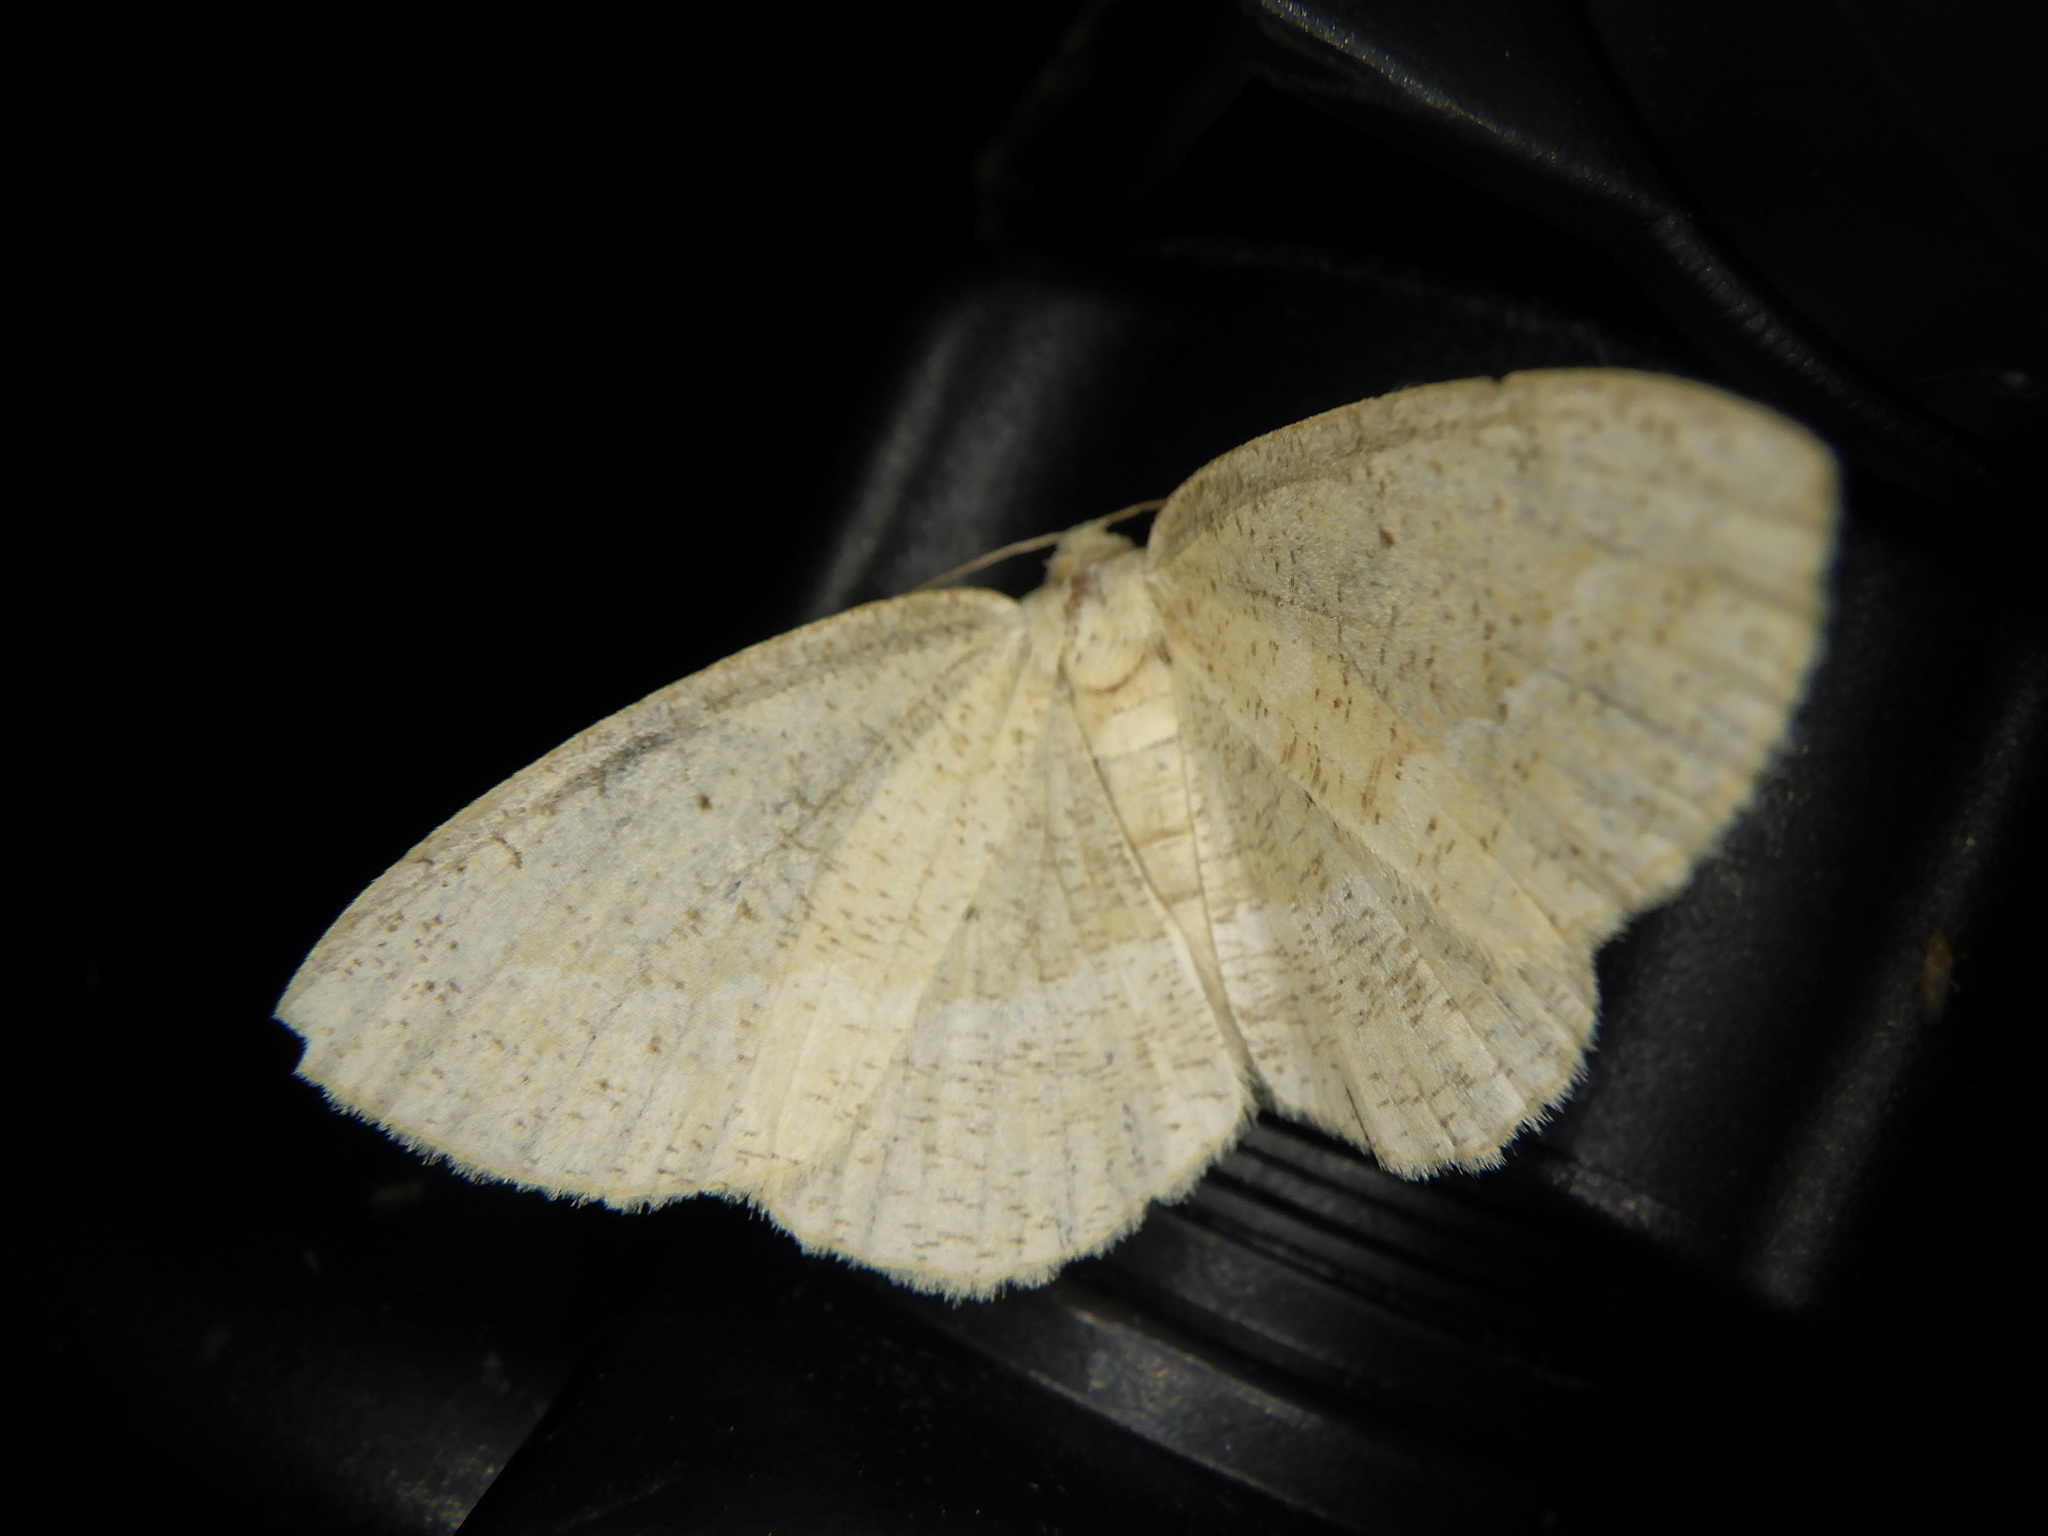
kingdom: Animalia
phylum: Arthropoda
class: Insecta
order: Lepidoptera
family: Geometridae
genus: Platycerota
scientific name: Platycerota incertaria
